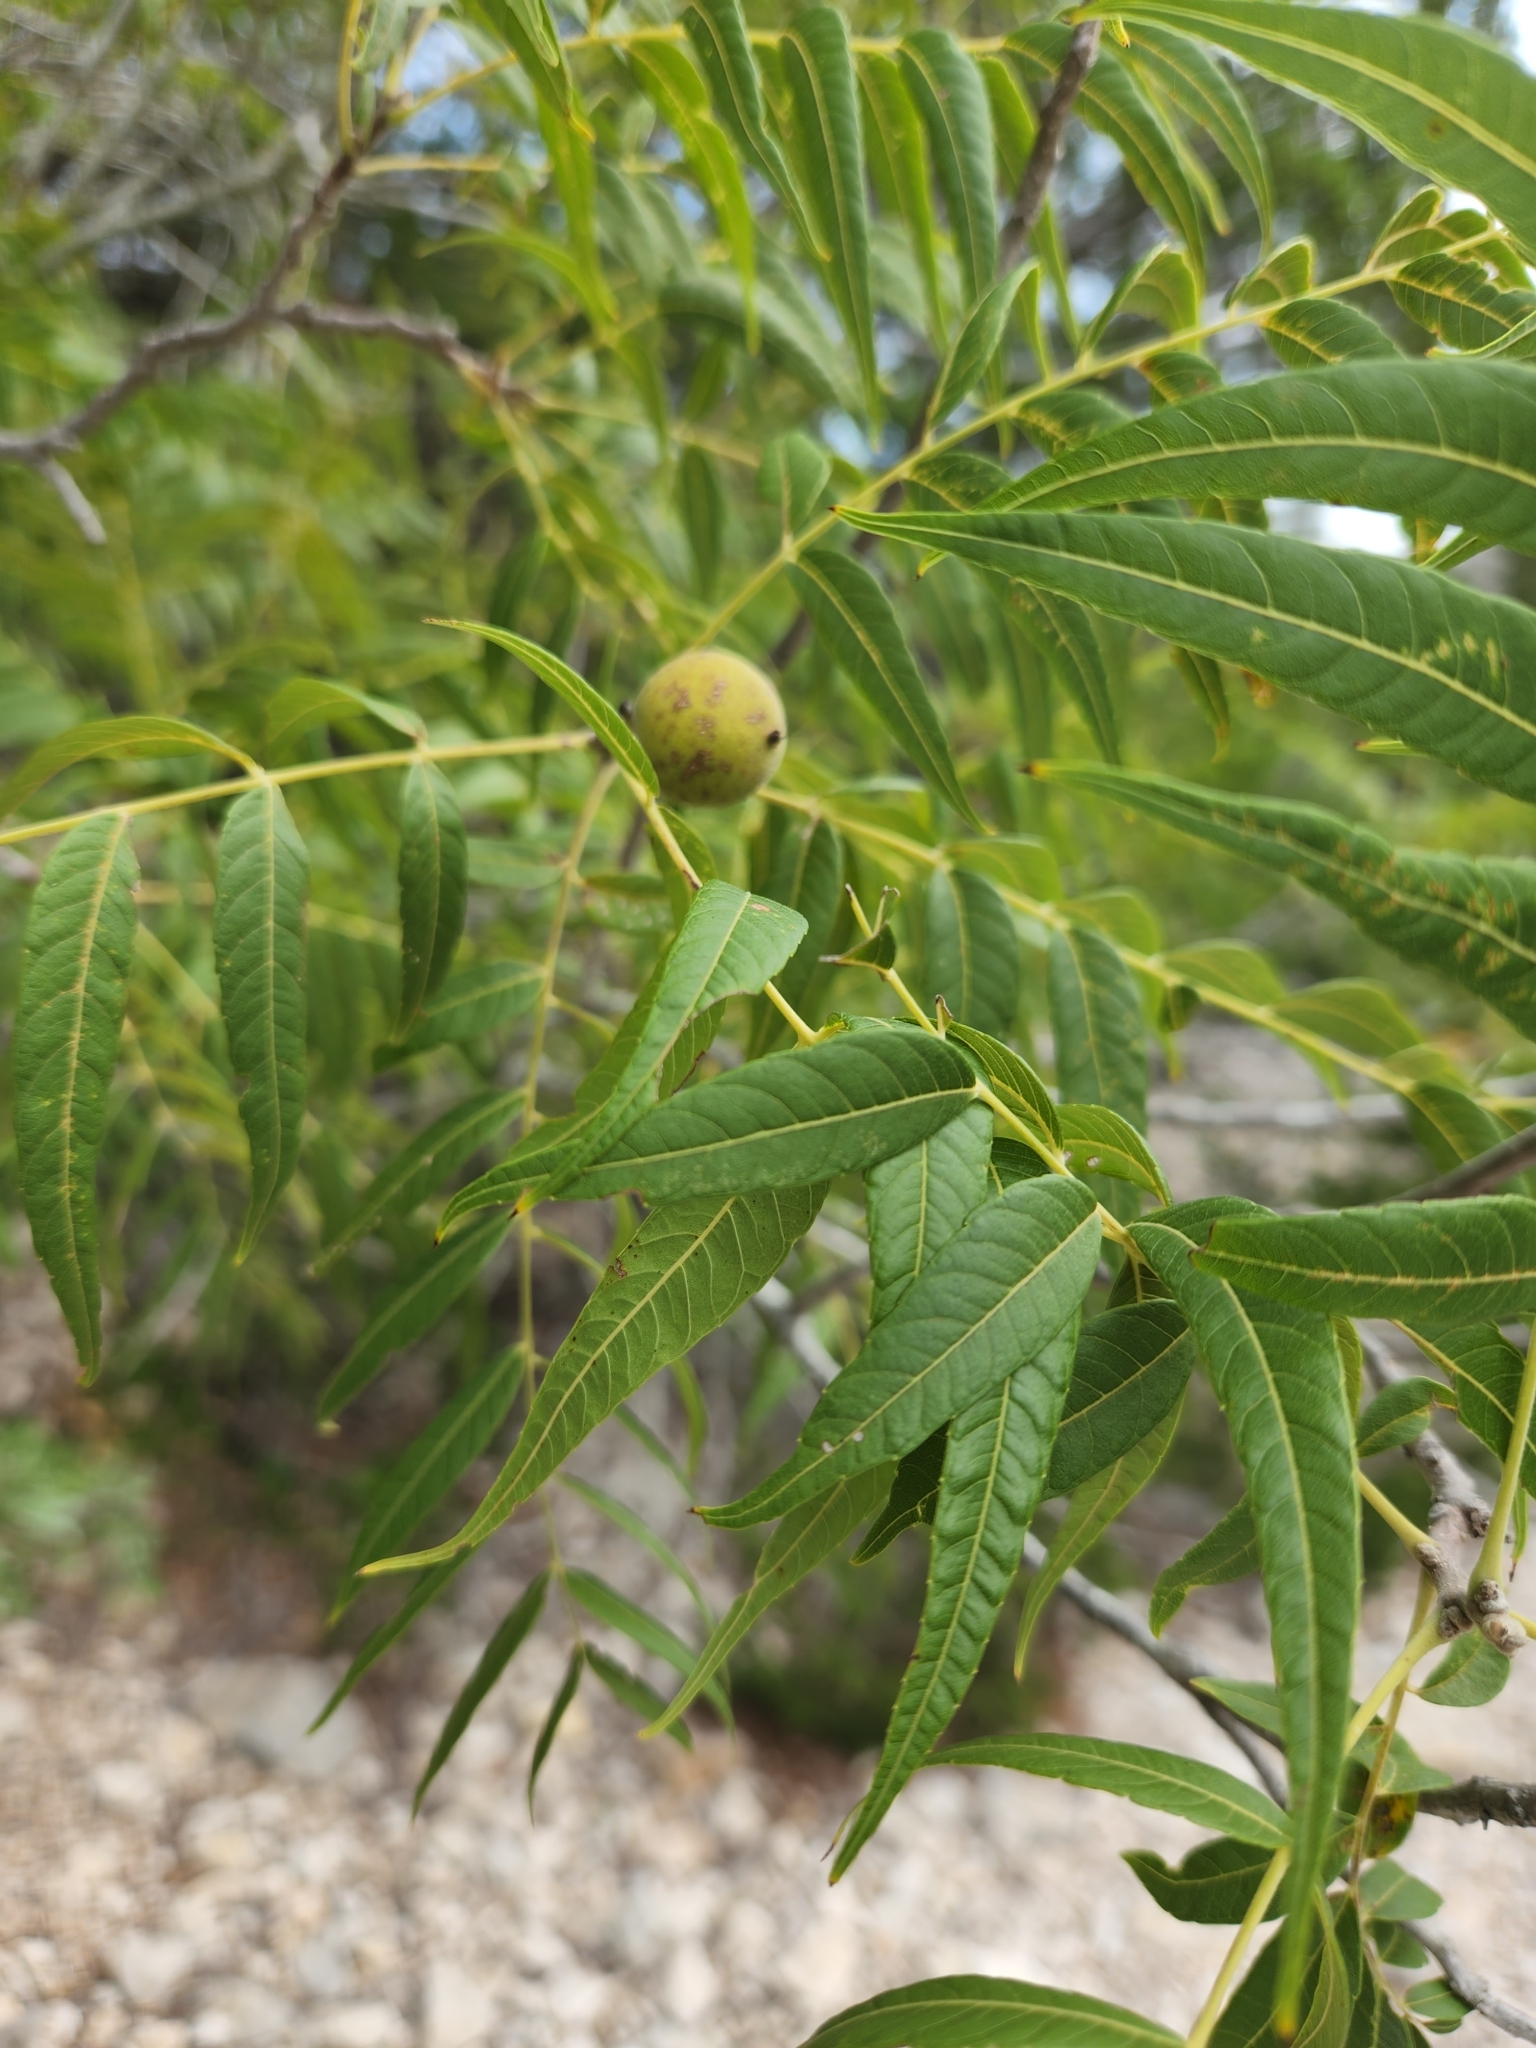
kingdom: Plantae
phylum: Tracheophyta
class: Magnoliopsida
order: Fagales
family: Juglandaceae
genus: Juglans
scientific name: Juglans microcarpa
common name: Texas walnut
